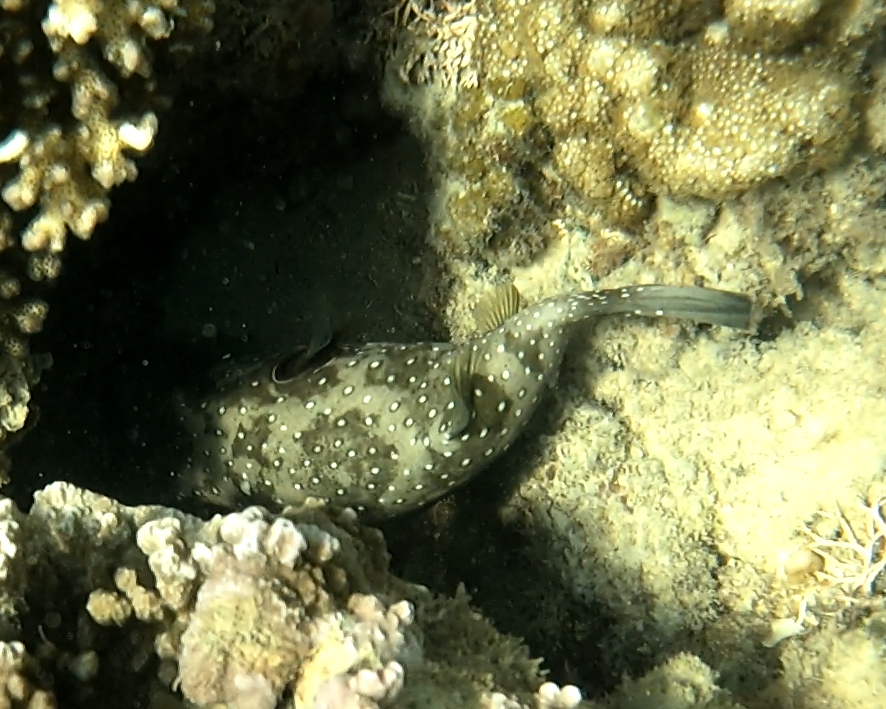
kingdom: Animalia
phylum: Chordata
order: Tetraodontiformes
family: Tetraodontidae
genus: Arothron
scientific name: Arothron hispidus
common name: Stripebelly puffer
